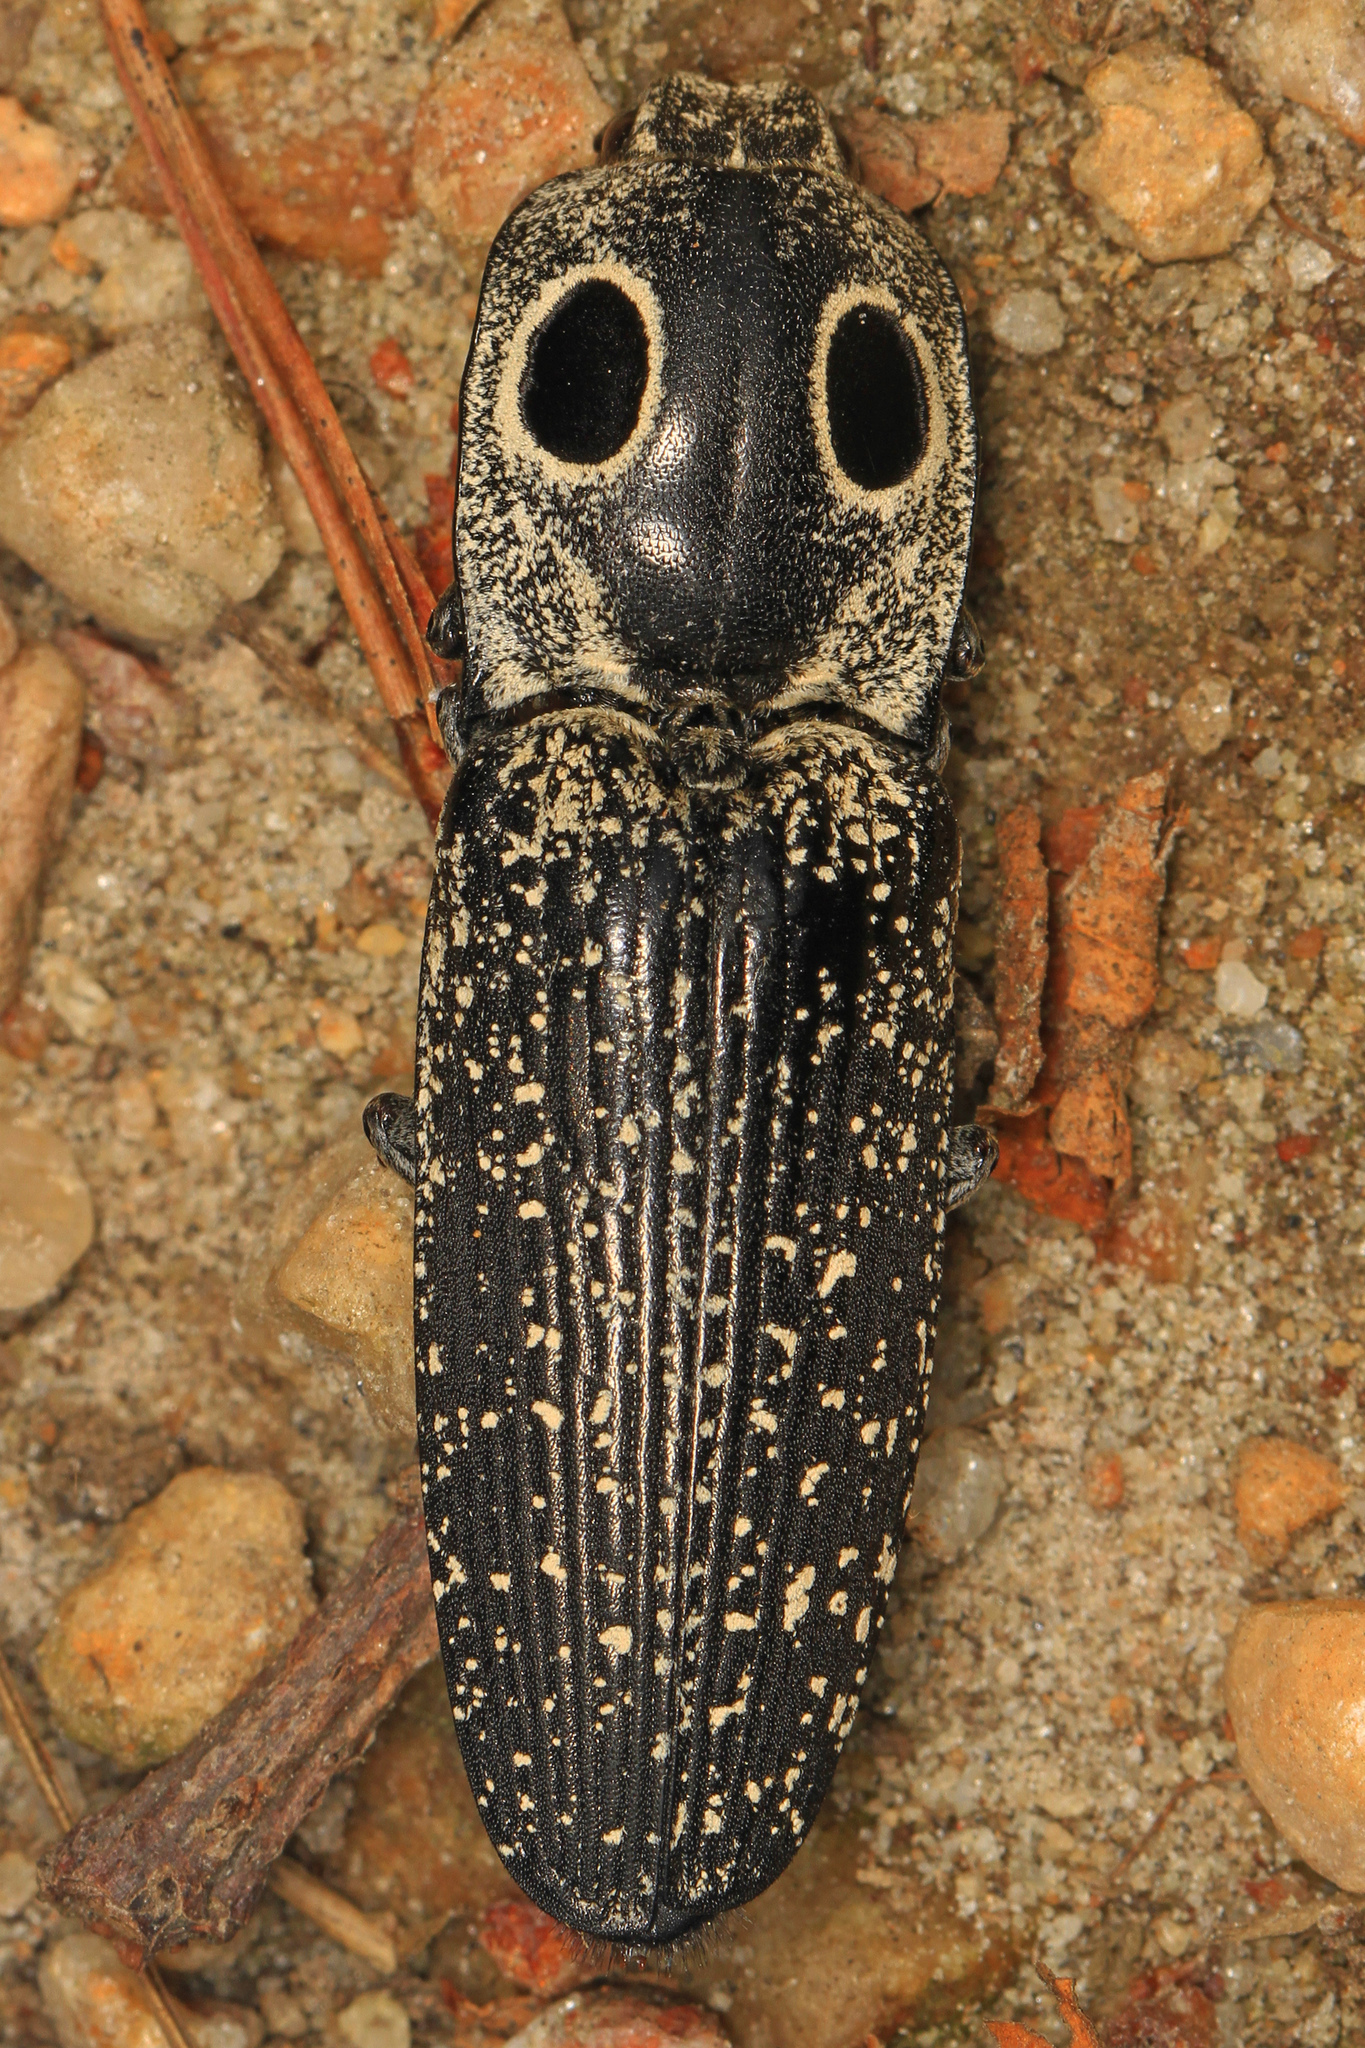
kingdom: Animalia
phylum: Arthropoda
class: Insecta
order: Coleoptera
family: Elateridae
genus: Alaus
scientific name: Alaus oculatus
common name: Eastern eyed click beetle
